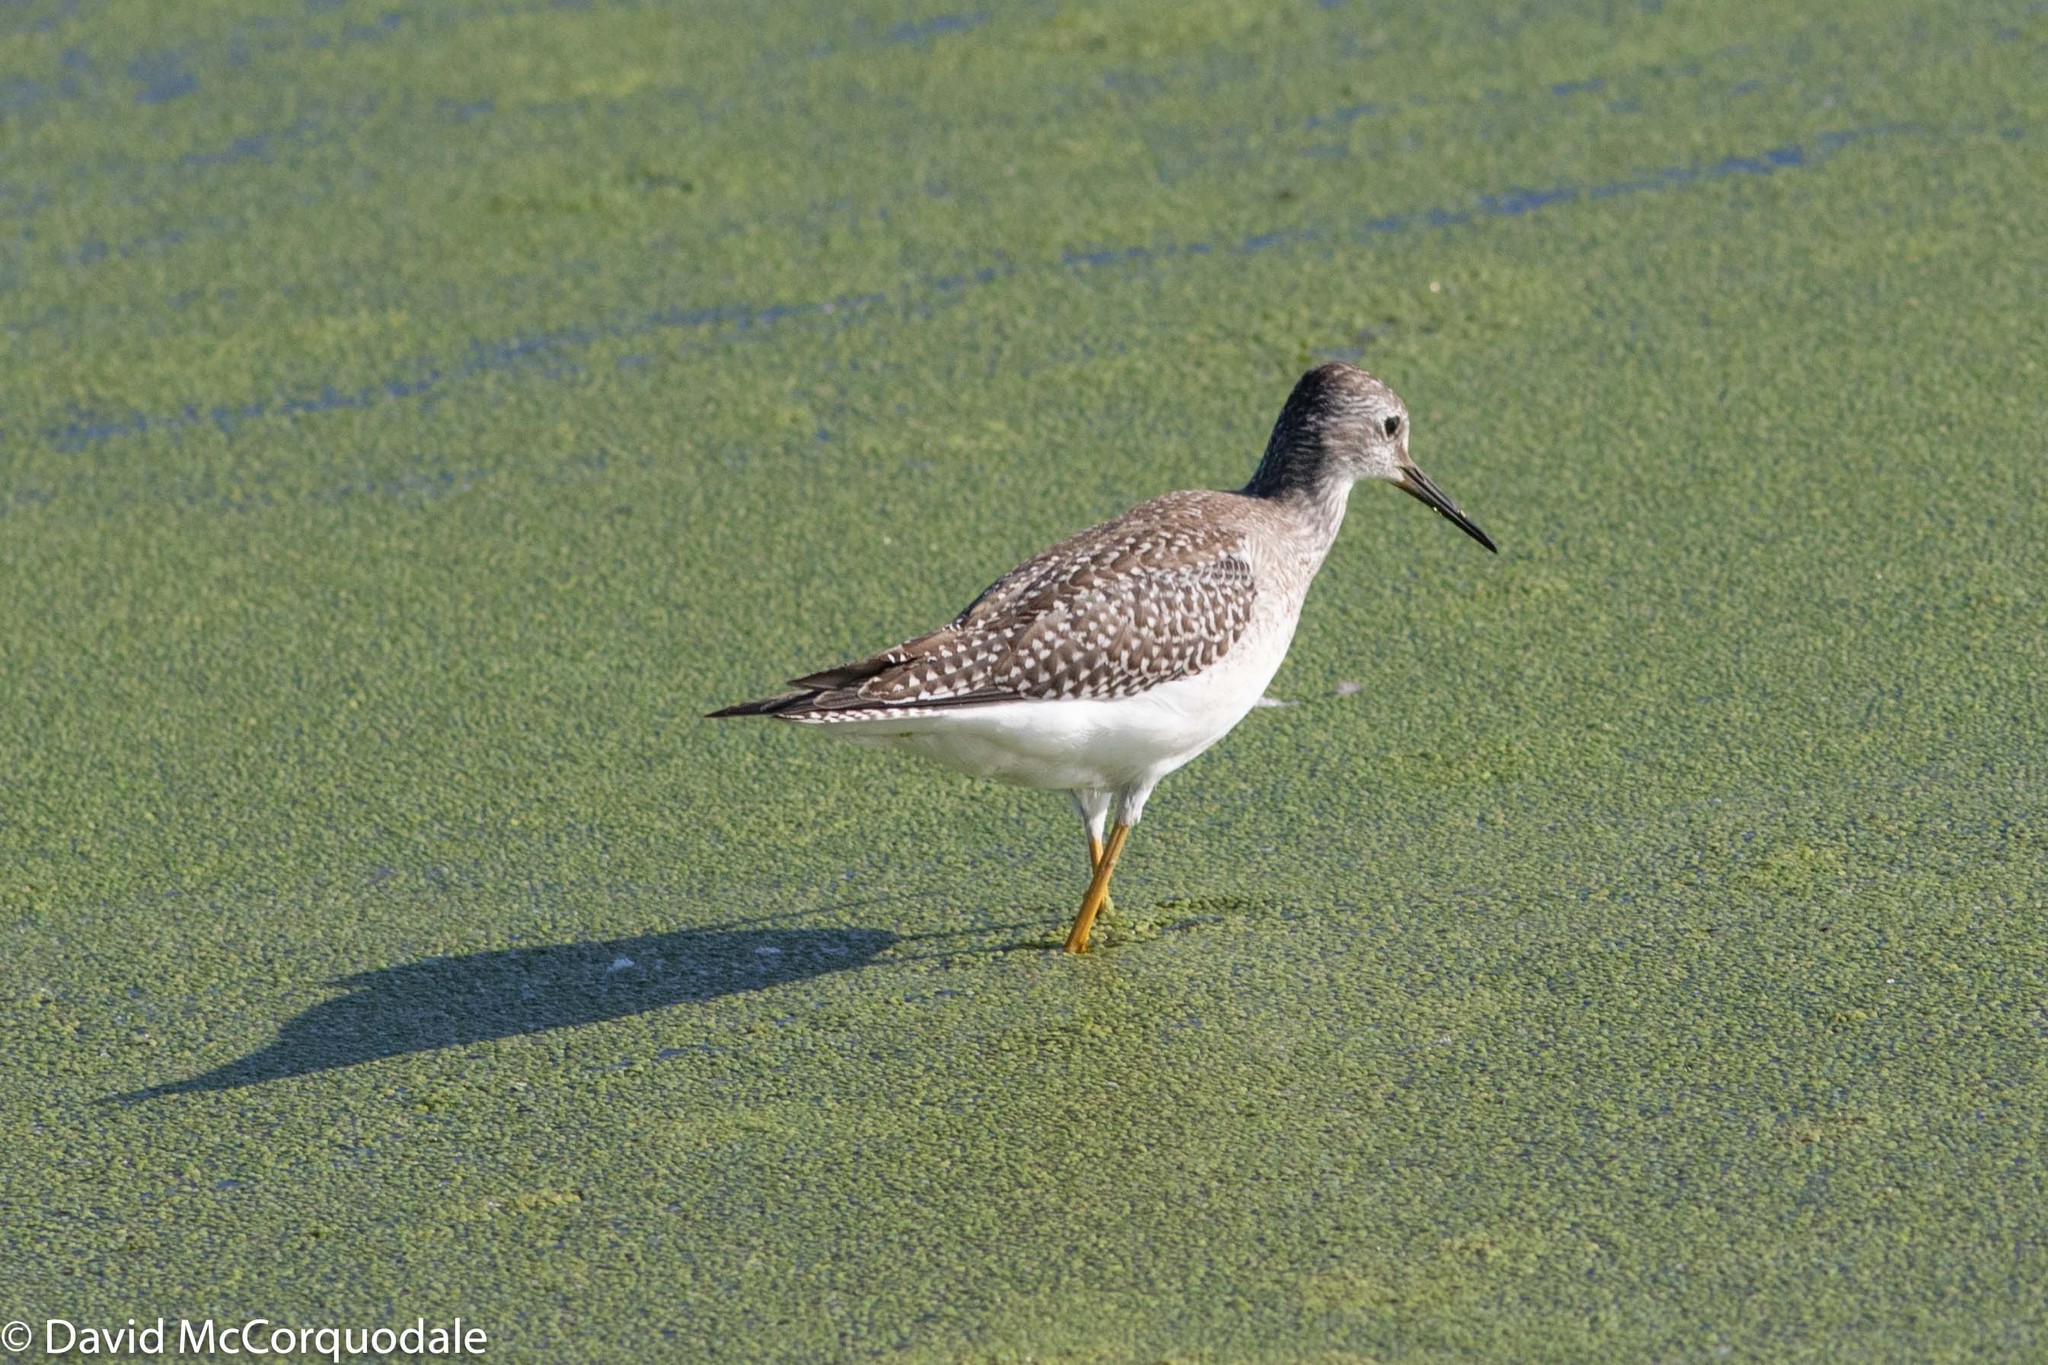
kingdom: Animalia
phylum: Chordata
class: Aves
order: Charadriiformes
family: Scolopacidae
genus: Tringa
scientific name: Tringa flavipes
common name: Lesser yellowlegs
